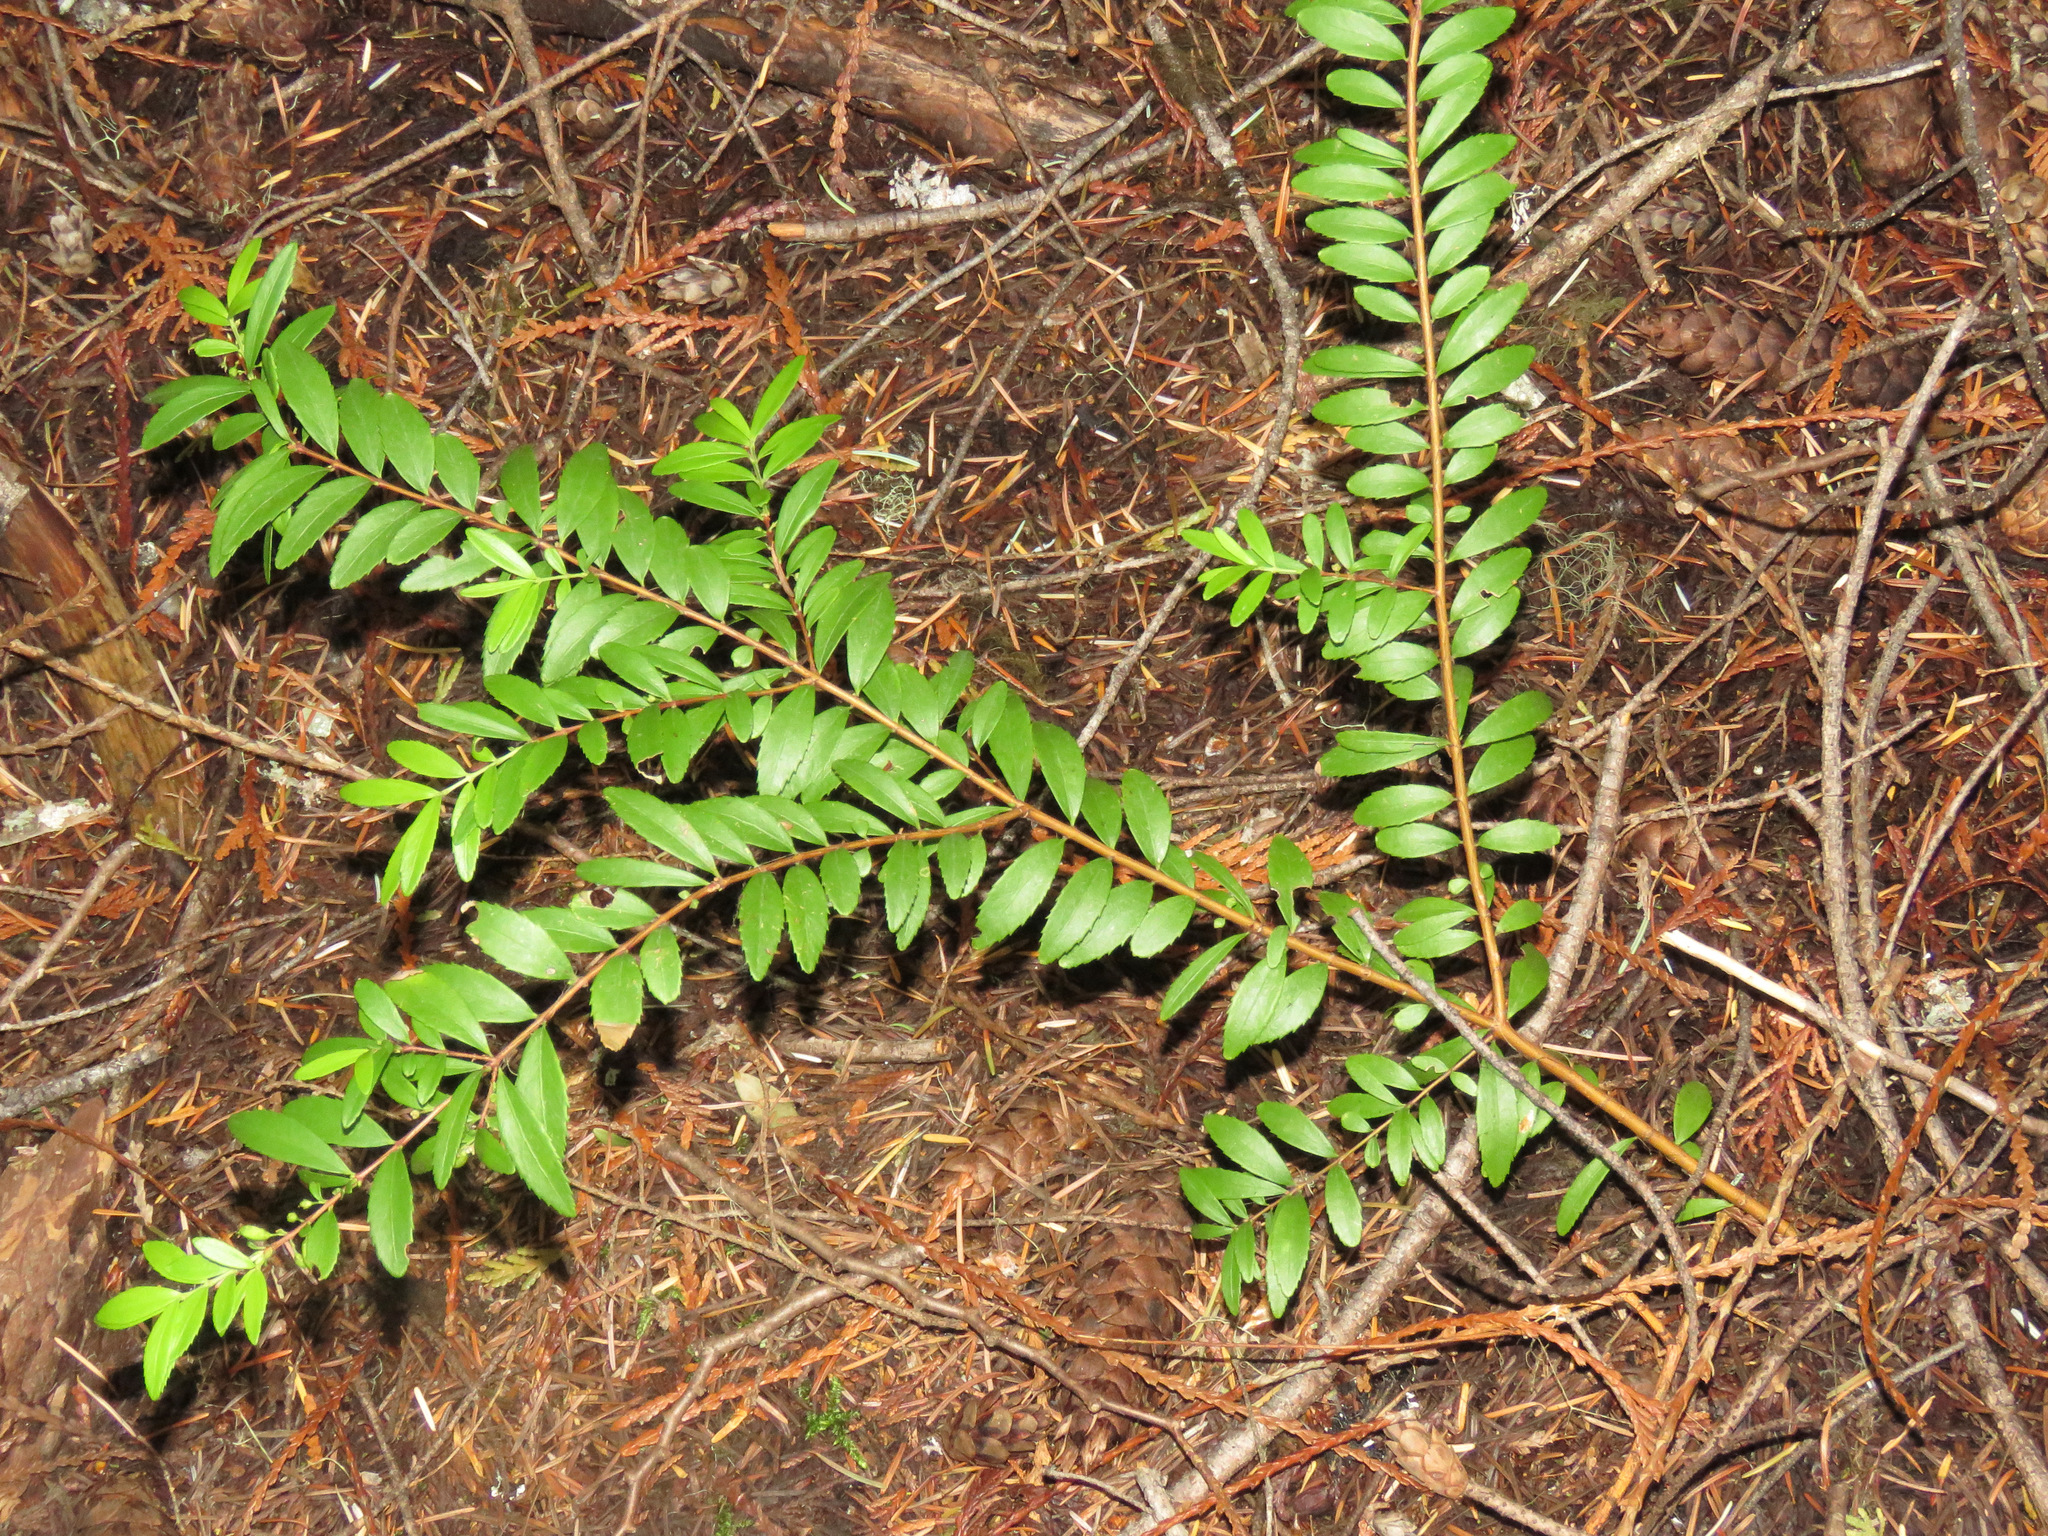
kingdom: Plantae
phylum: Tracheophyta
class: Magnoliopsida
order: Celastrales
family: Celastraceae
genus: Paxistima
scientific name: Paxistima myrsinites
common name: Mountain-lover
